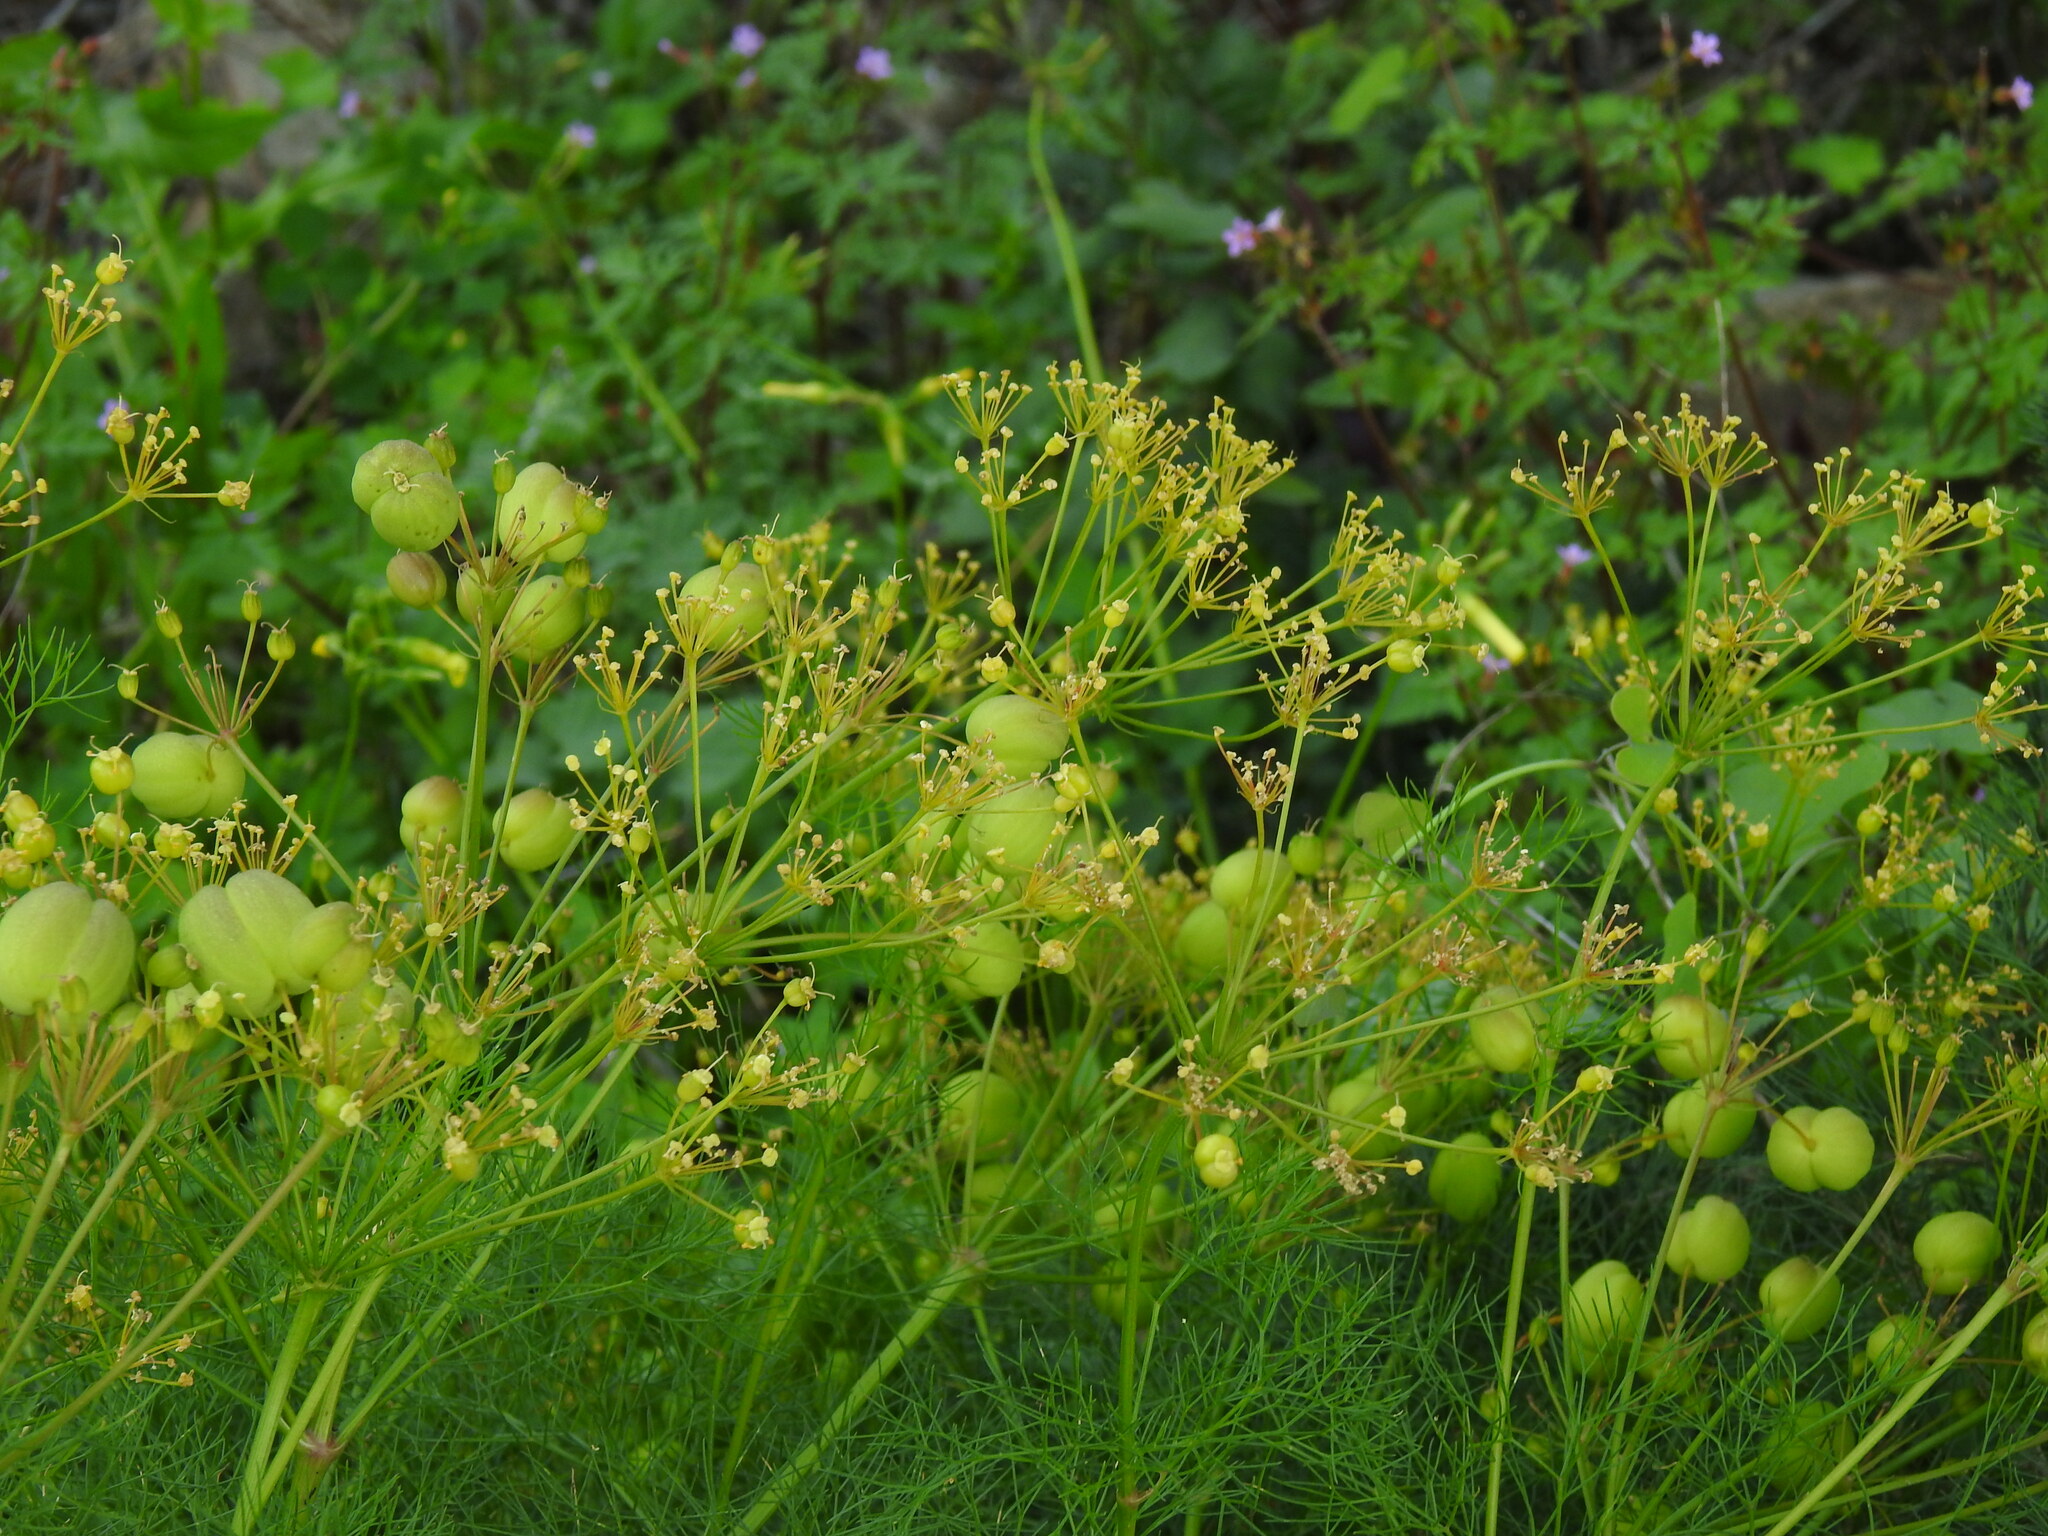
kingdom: Plantae
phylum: Tracheophyta
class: Magnoliopsida
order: Apiales
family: Apiaceae
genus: Prangos
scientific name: Prangos trifida
